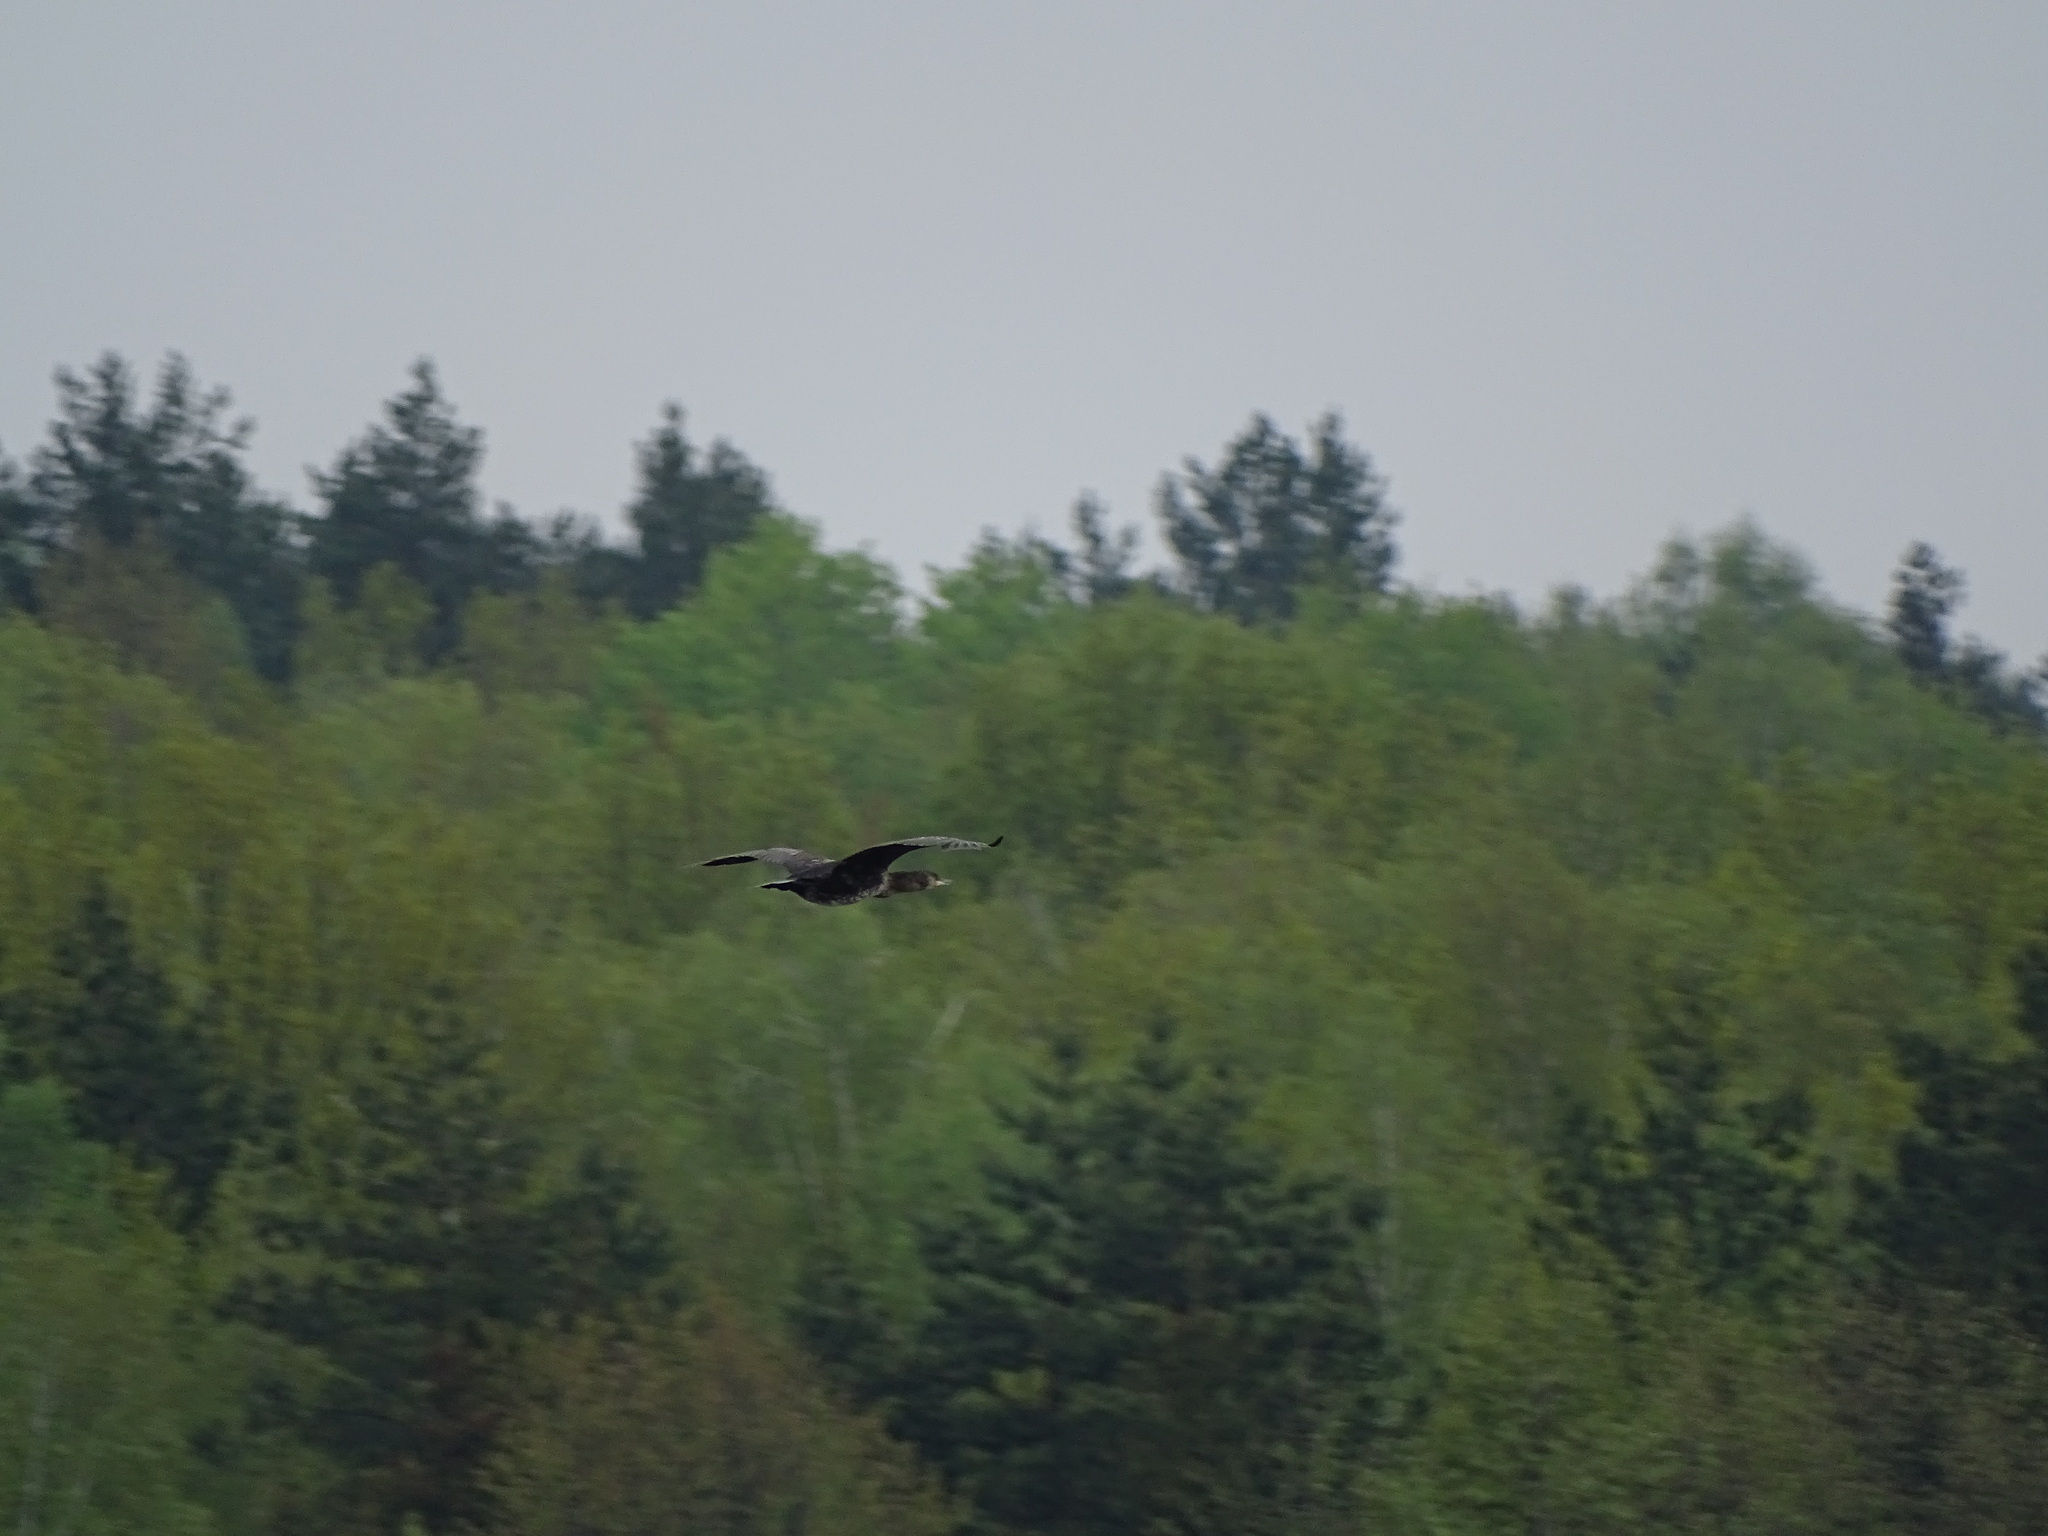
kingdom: Animalia
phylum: Chordata
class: Aves
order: Suliformes
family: Phalacrocoracidae
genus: Phalacrocorax
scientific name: Phalacrocorax carbo
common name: Great cormorant
